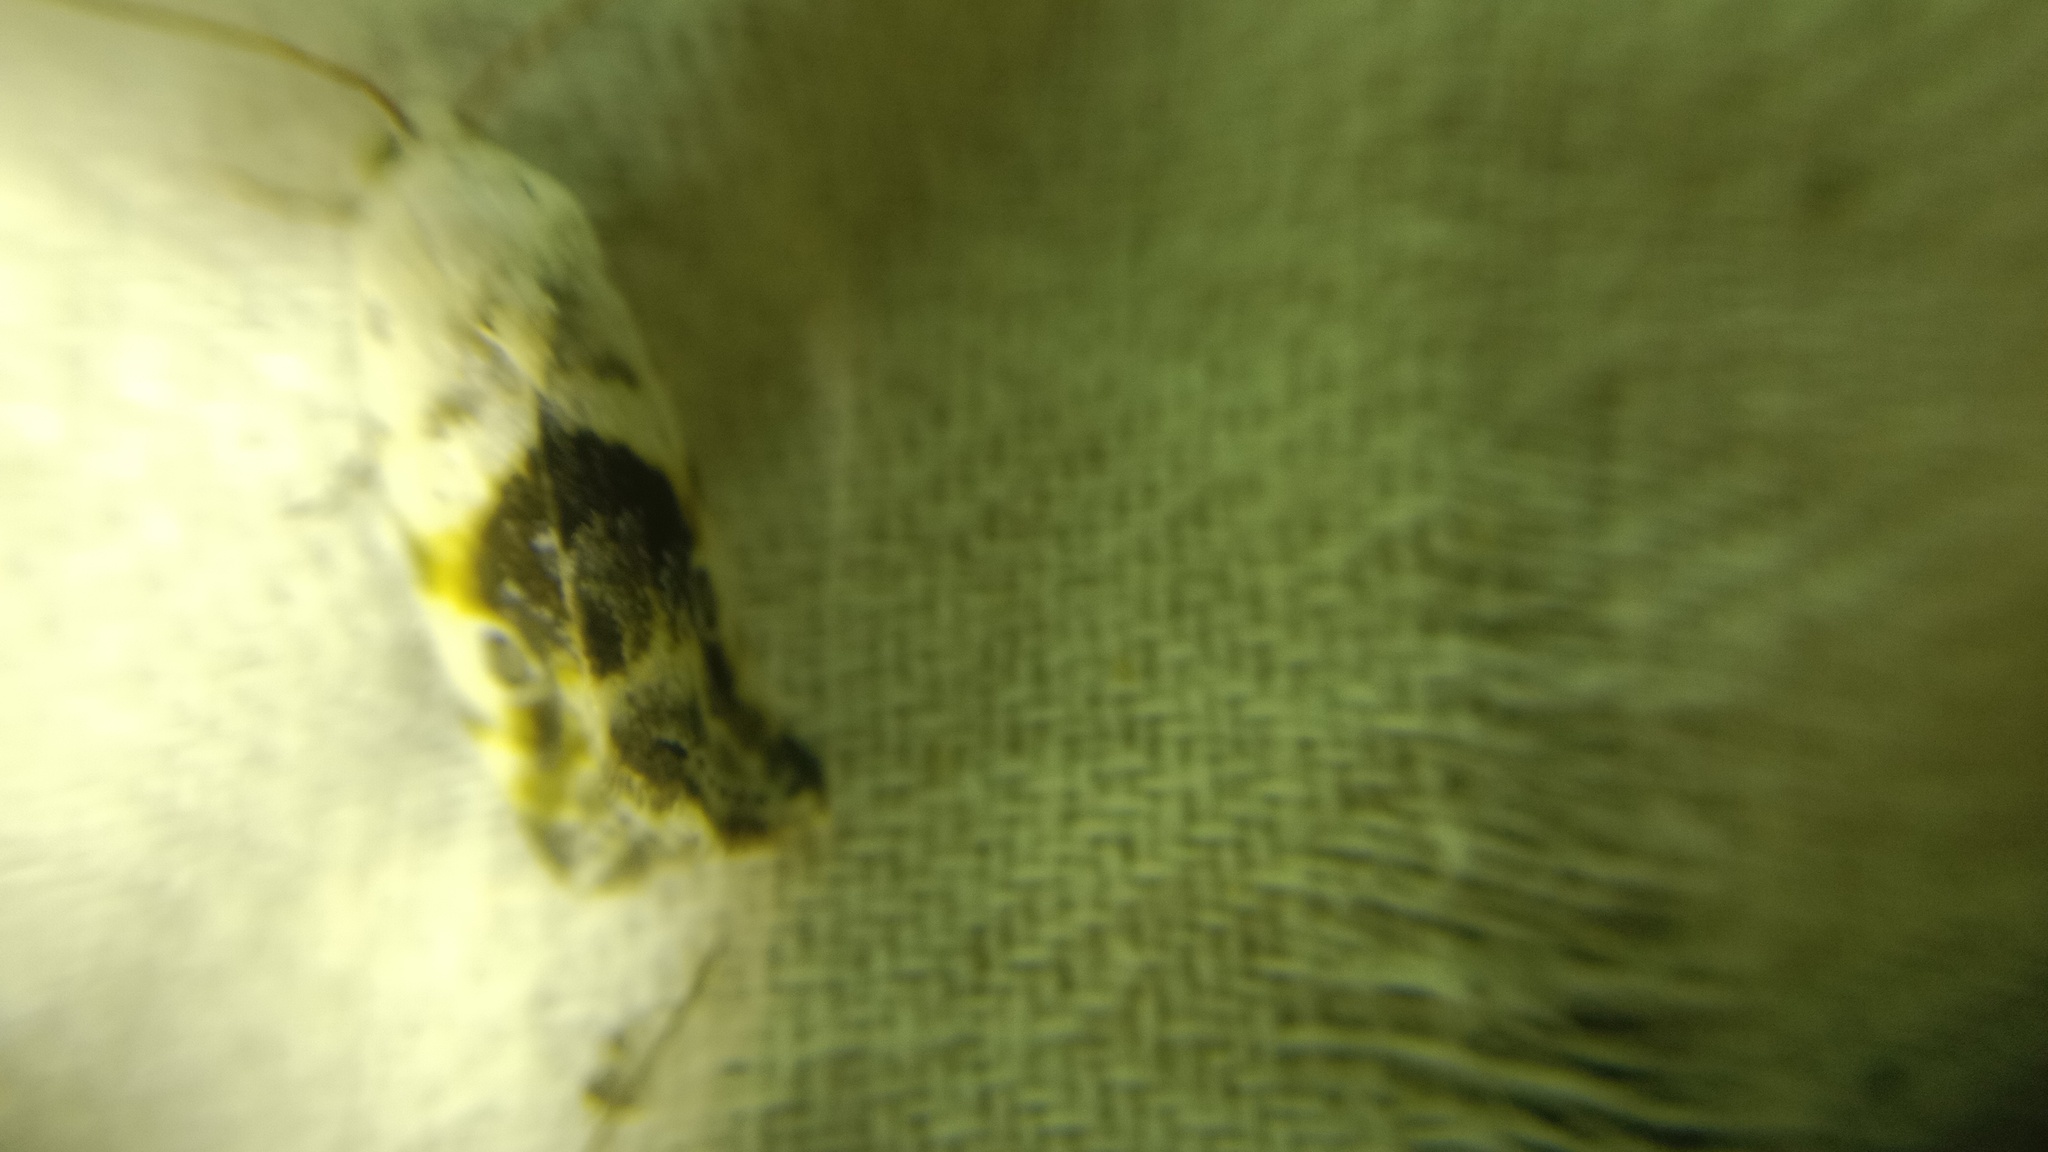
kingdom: Animalia
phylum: Arthropoda
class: Insecta
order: Lepidoptera
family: Noctuidae
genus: Acontia
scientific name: Acontia candefacta
